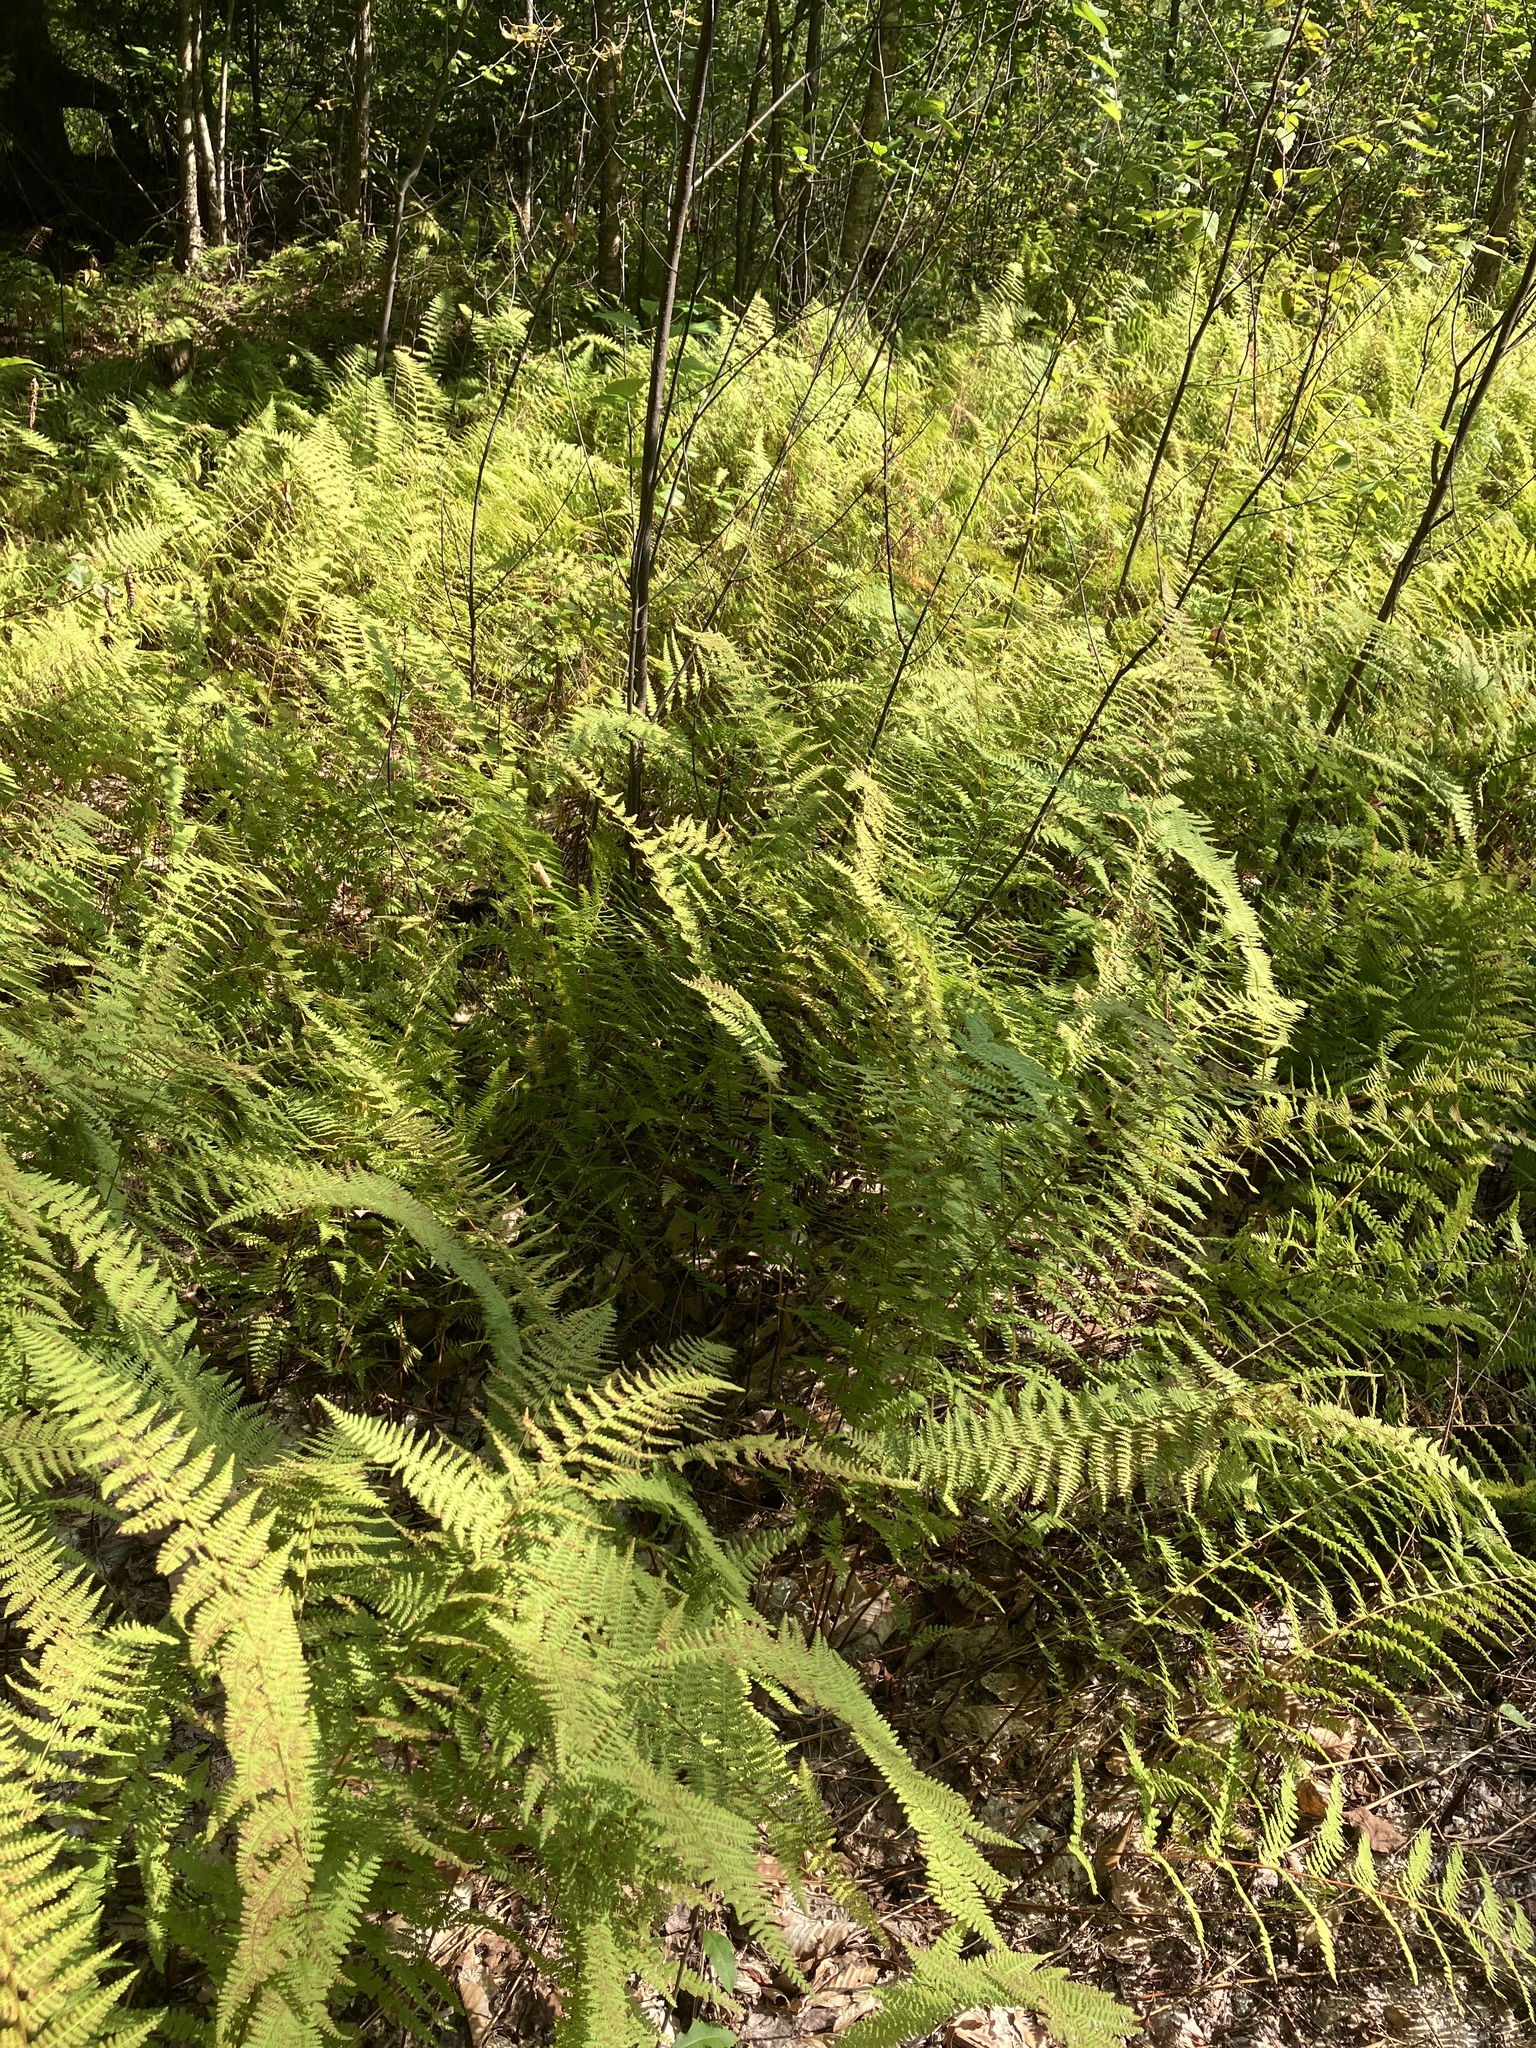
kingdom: Plantae
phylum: Tracheophyta
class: Polypodiopsida
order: Polypodiales
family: Dennstaedtiaceae
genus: Sitobolium
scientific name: Sitobolium punctilobum
